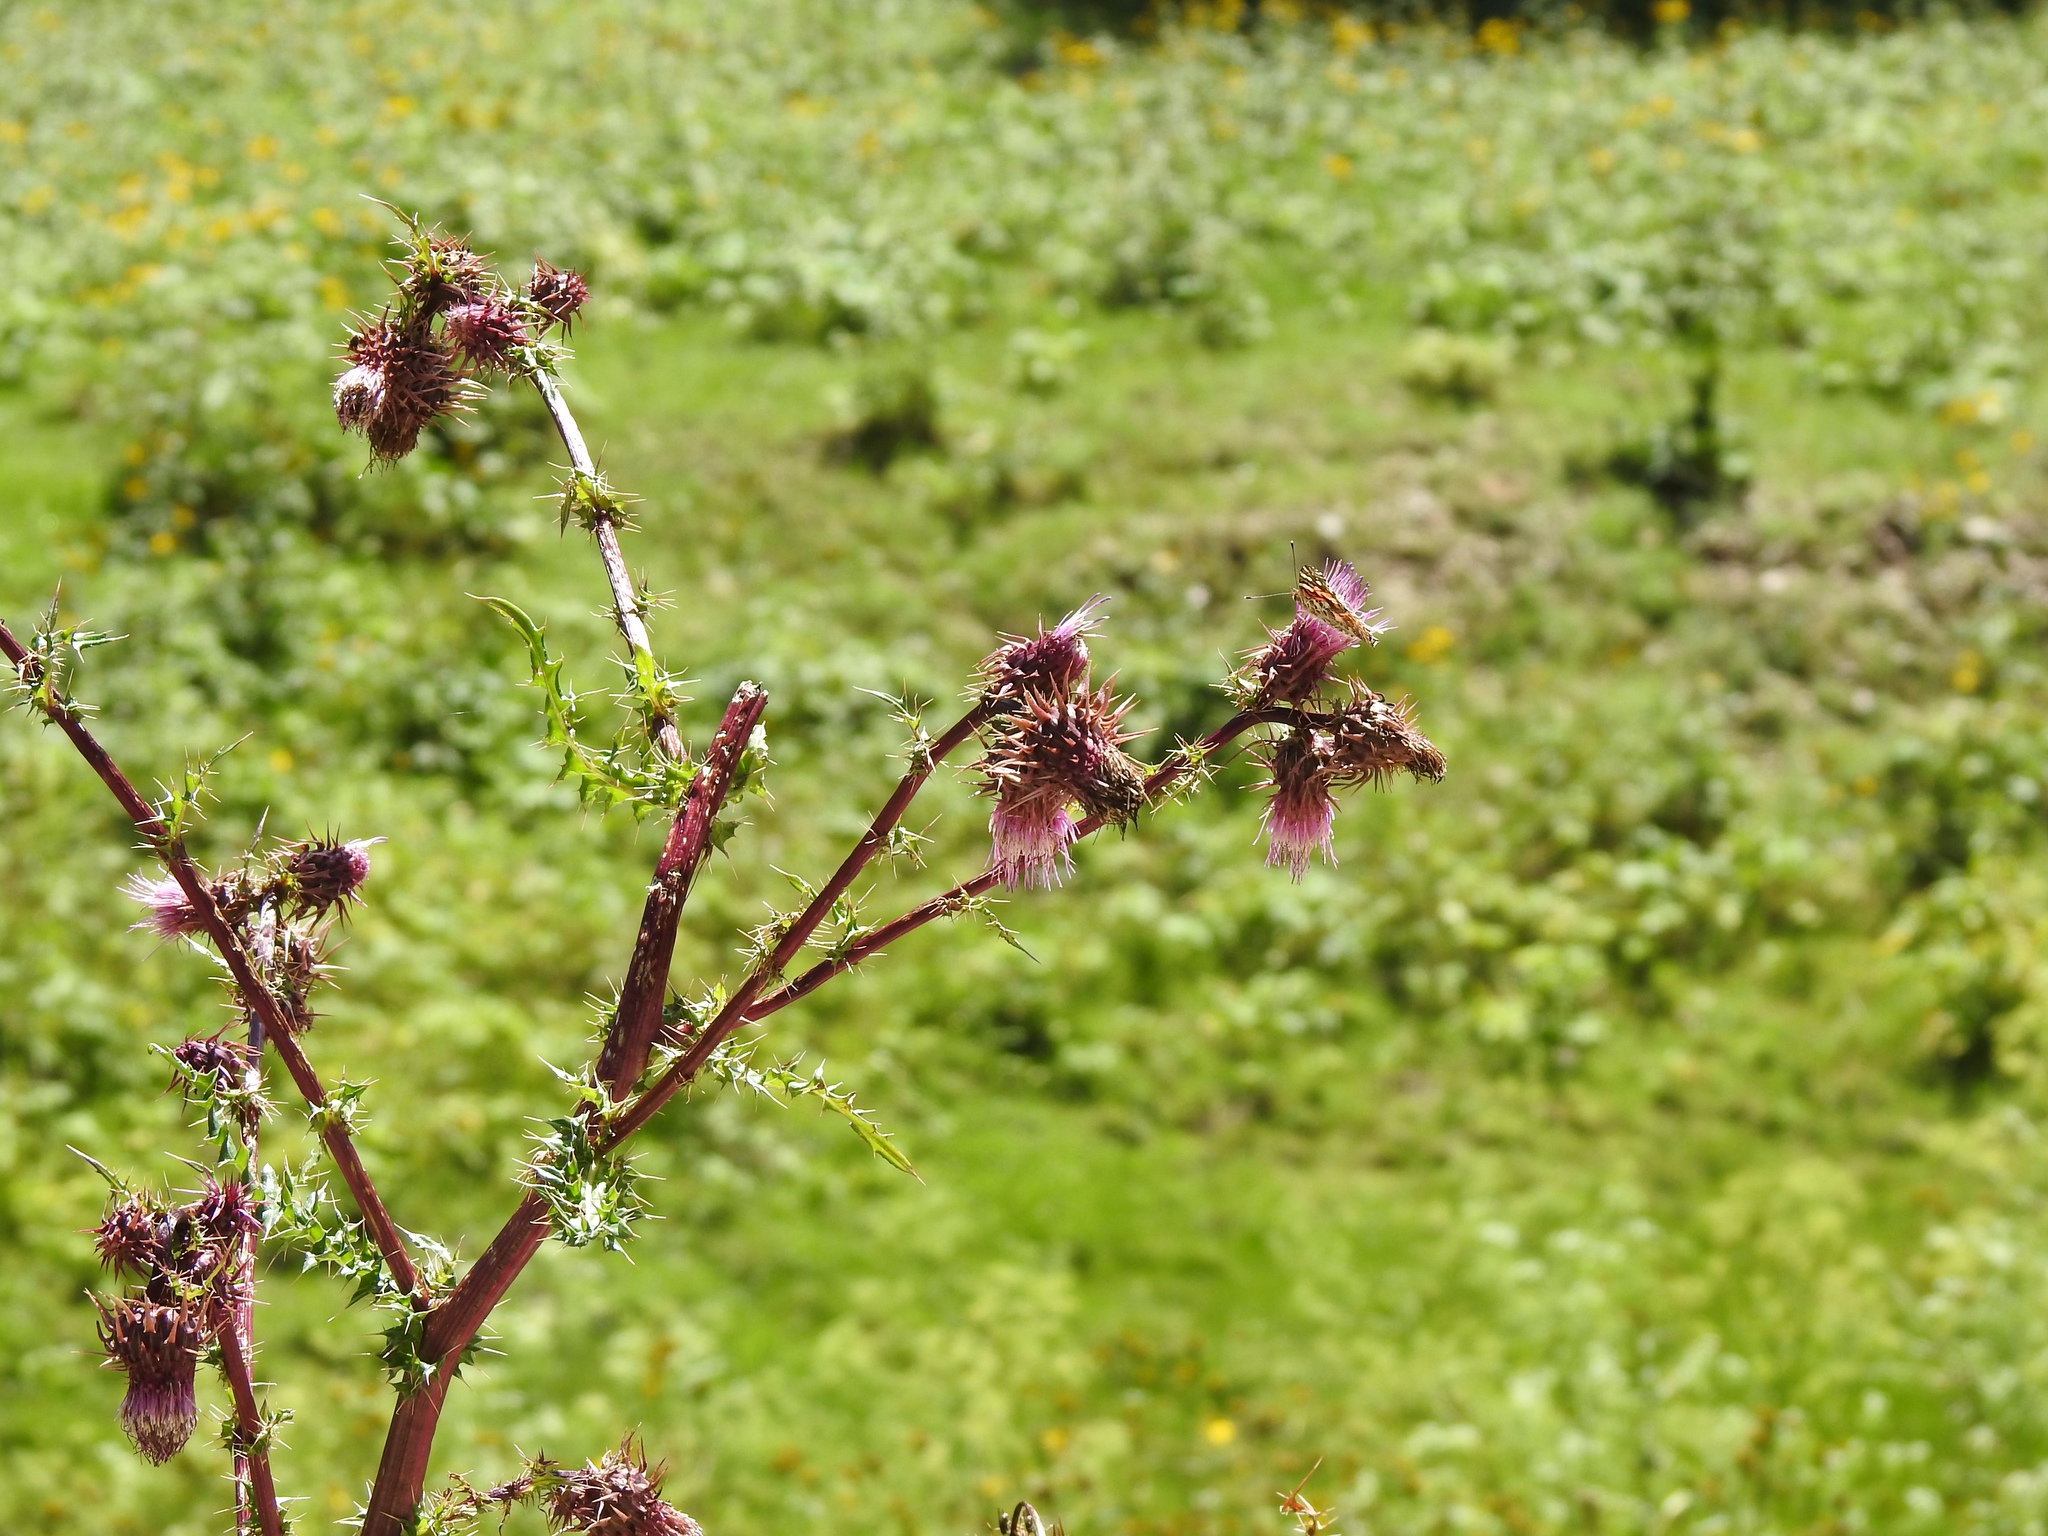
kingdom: Plantae
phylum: Tracheophyta
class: Magnoliopsida
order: Asterales
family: Asteraceae
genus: Cirsium
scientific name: Cirsium vinaceum
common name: Sacramento mountain thistle
